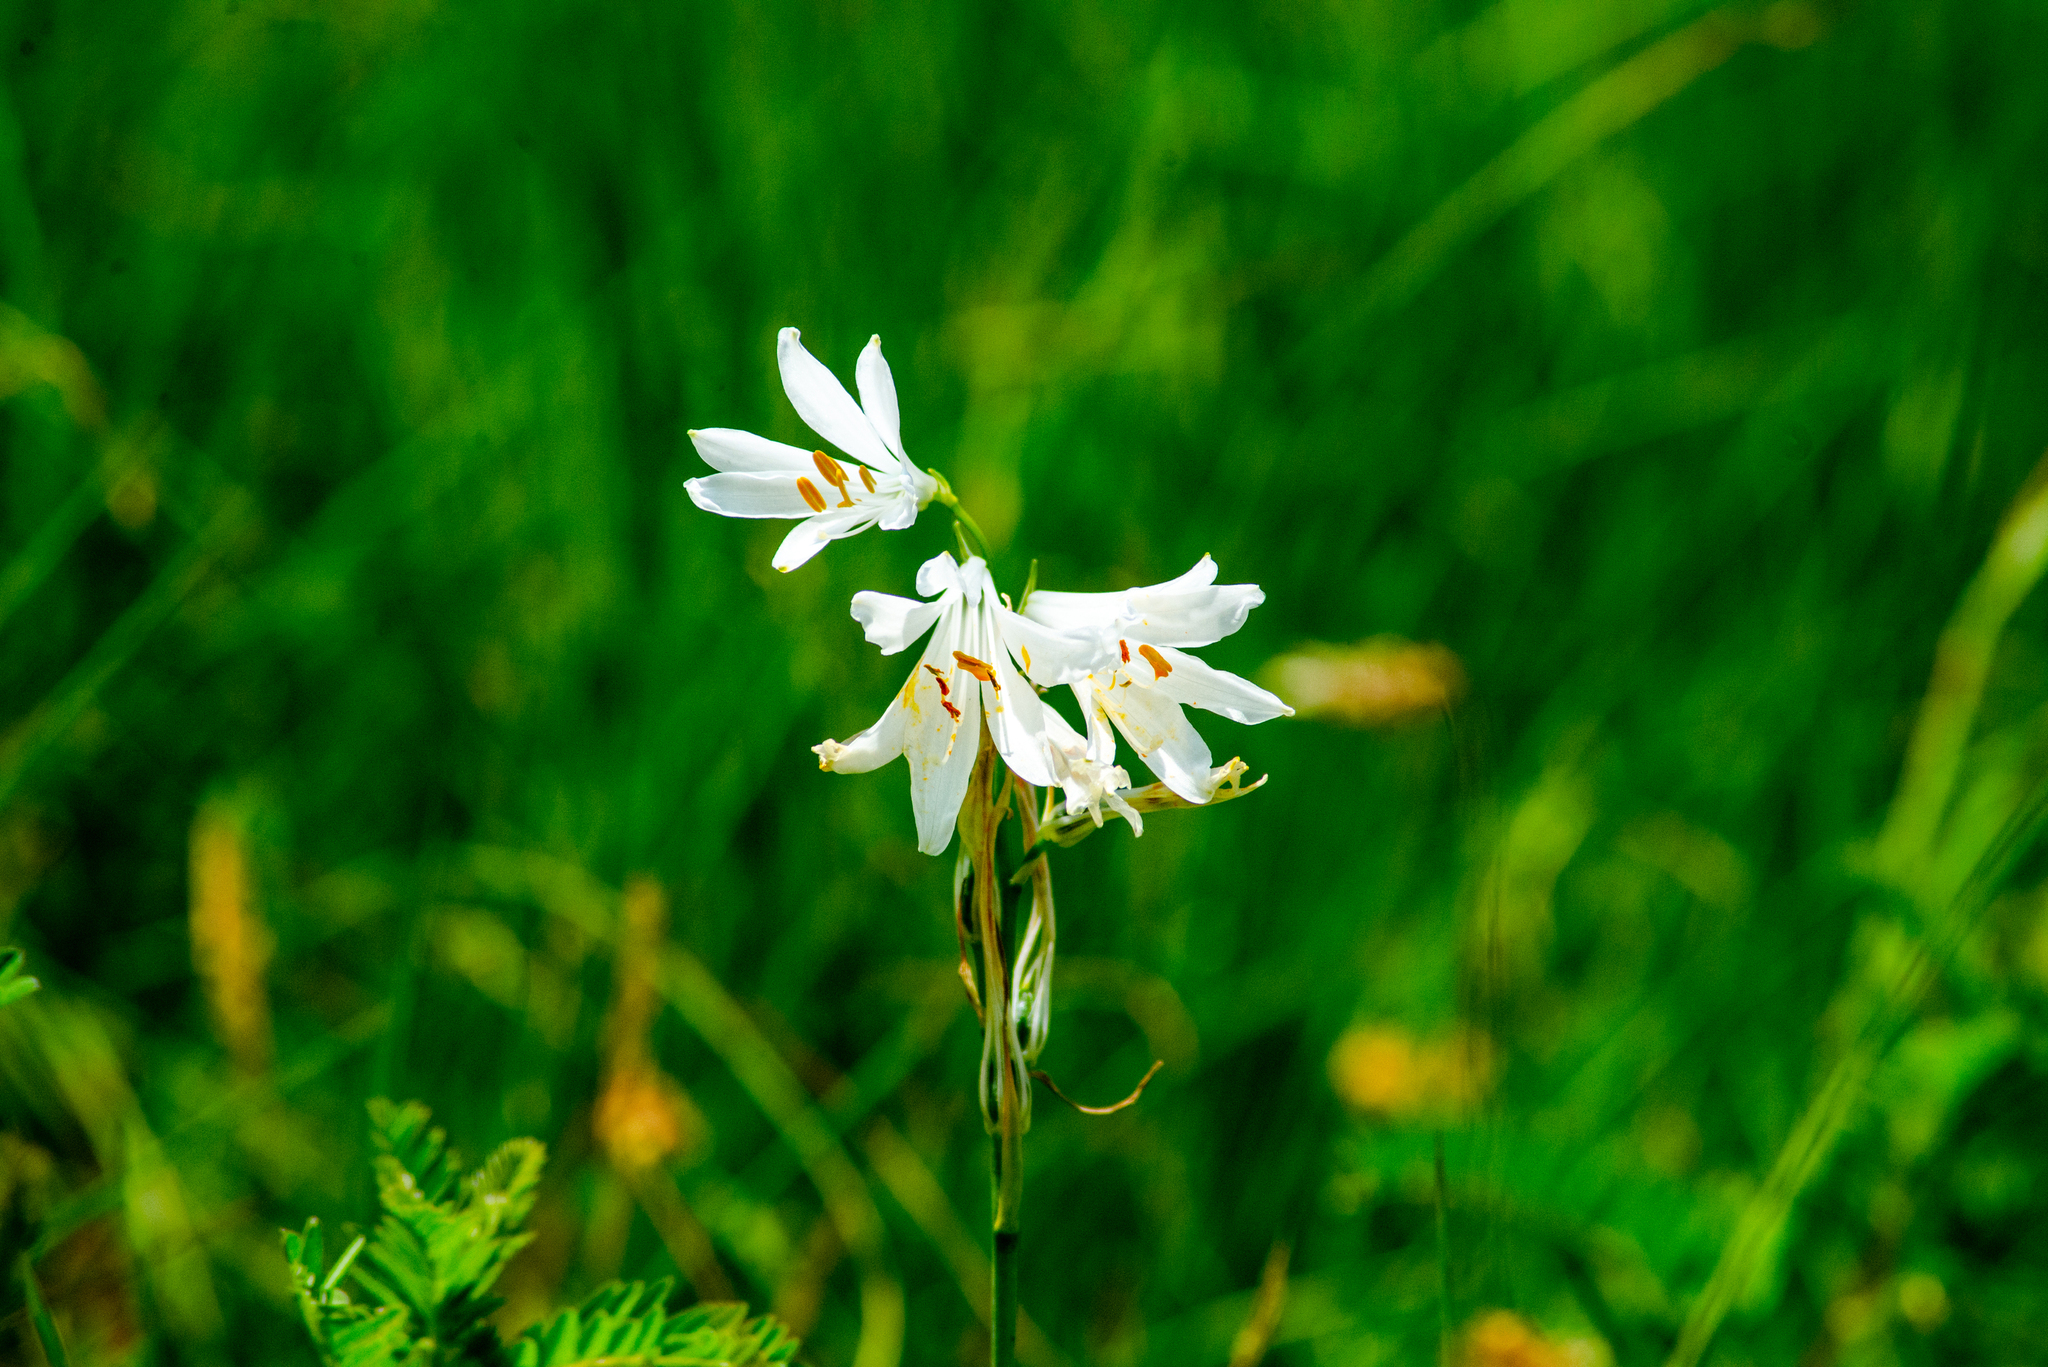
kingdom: Plantae
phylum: Tracheophyta
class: Liliopsida
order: Asparagales
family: Asparagaceae
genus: Paradisea
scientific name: Paradisea liliastrum
